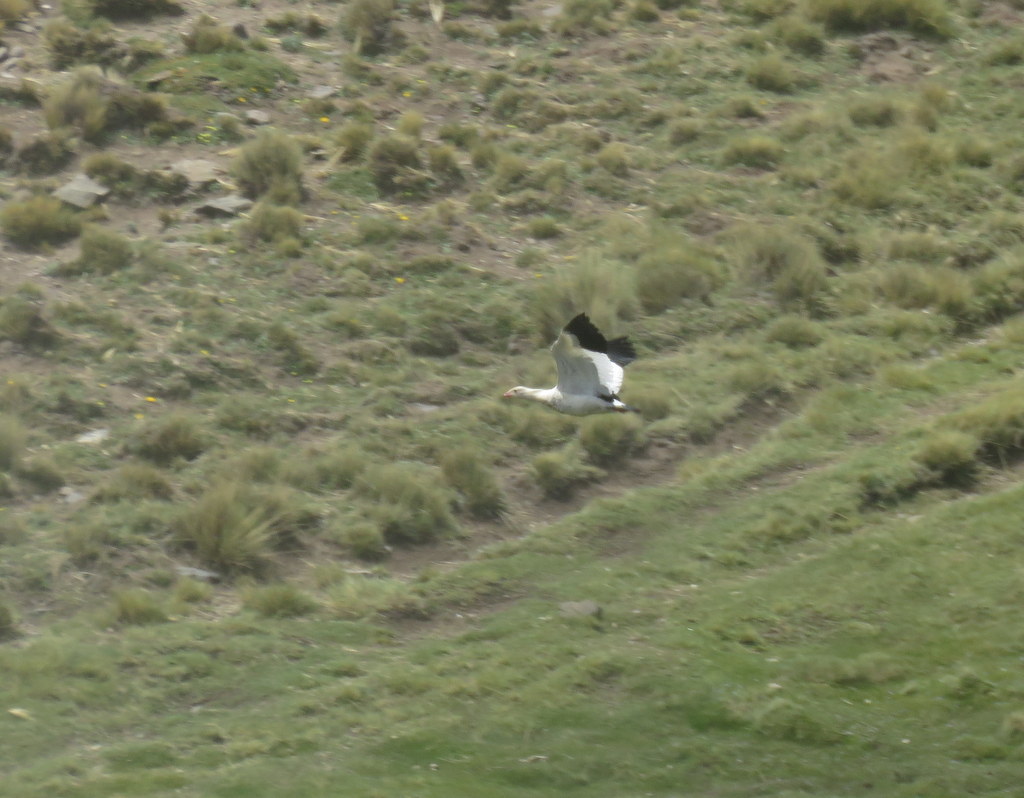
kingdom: Animalia
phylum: Chordata
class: Aves
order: Anseriformes
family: Anatidae
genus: Chloephaga
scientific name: Chloephaga melanoptera
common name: Andean goose
